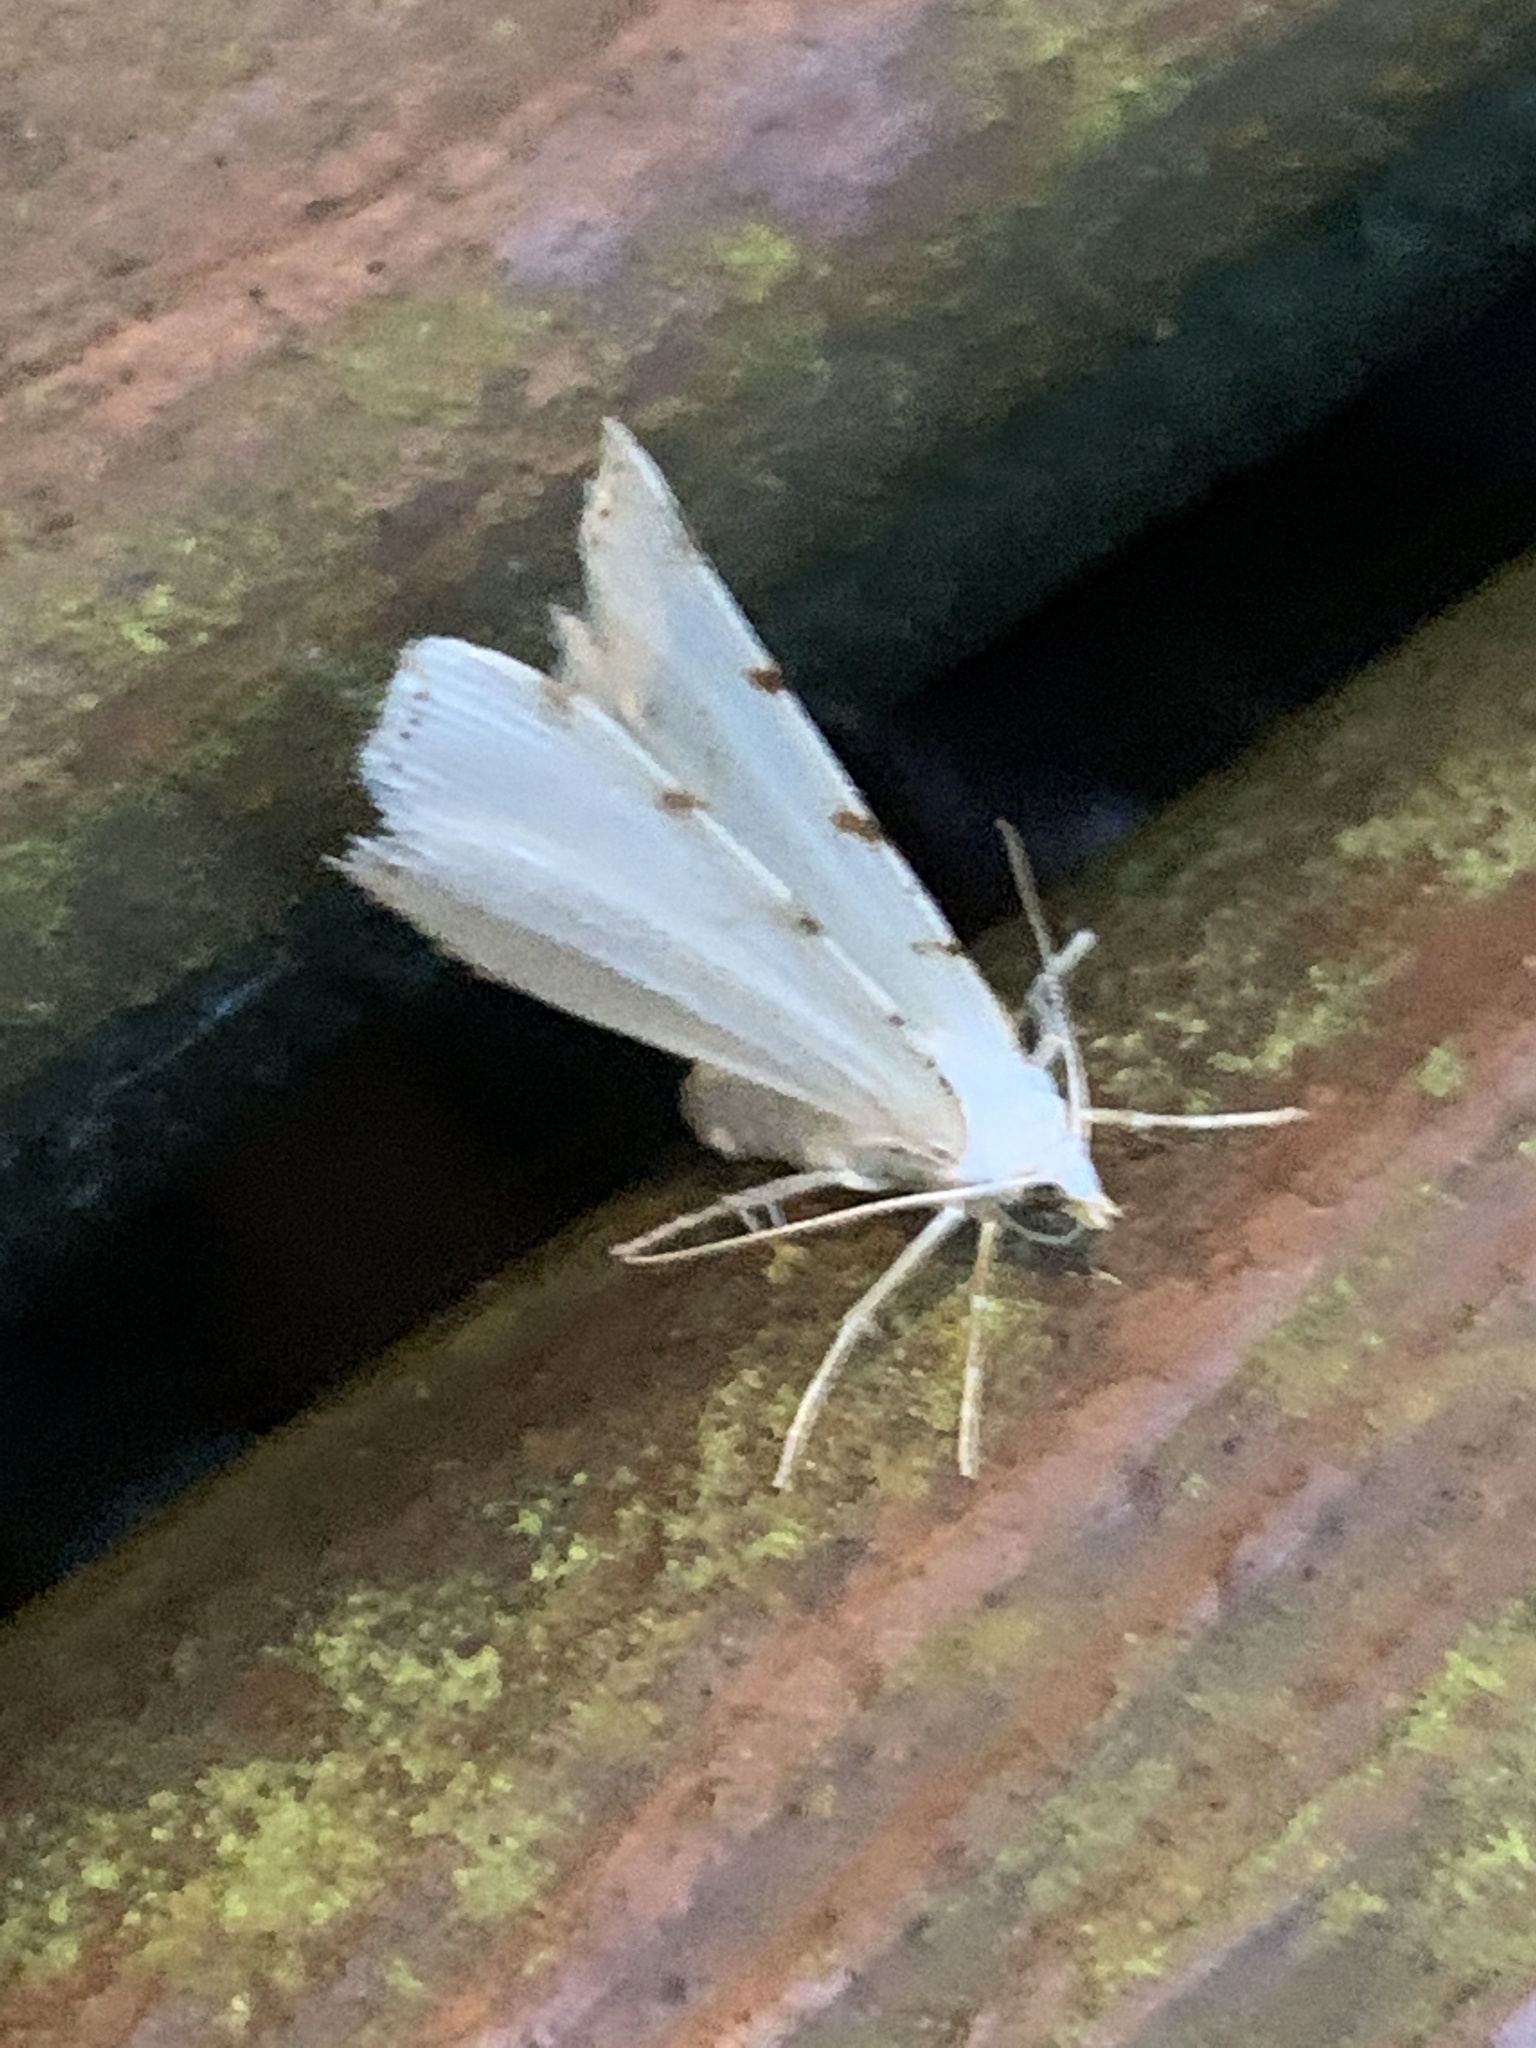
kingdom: Animalia
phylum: Arthropoda
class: Insecta
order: Lepidoptera
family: Geometridae
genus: Macaria
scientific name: Macaria pustularia
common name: Lesser maple spanworm moth
